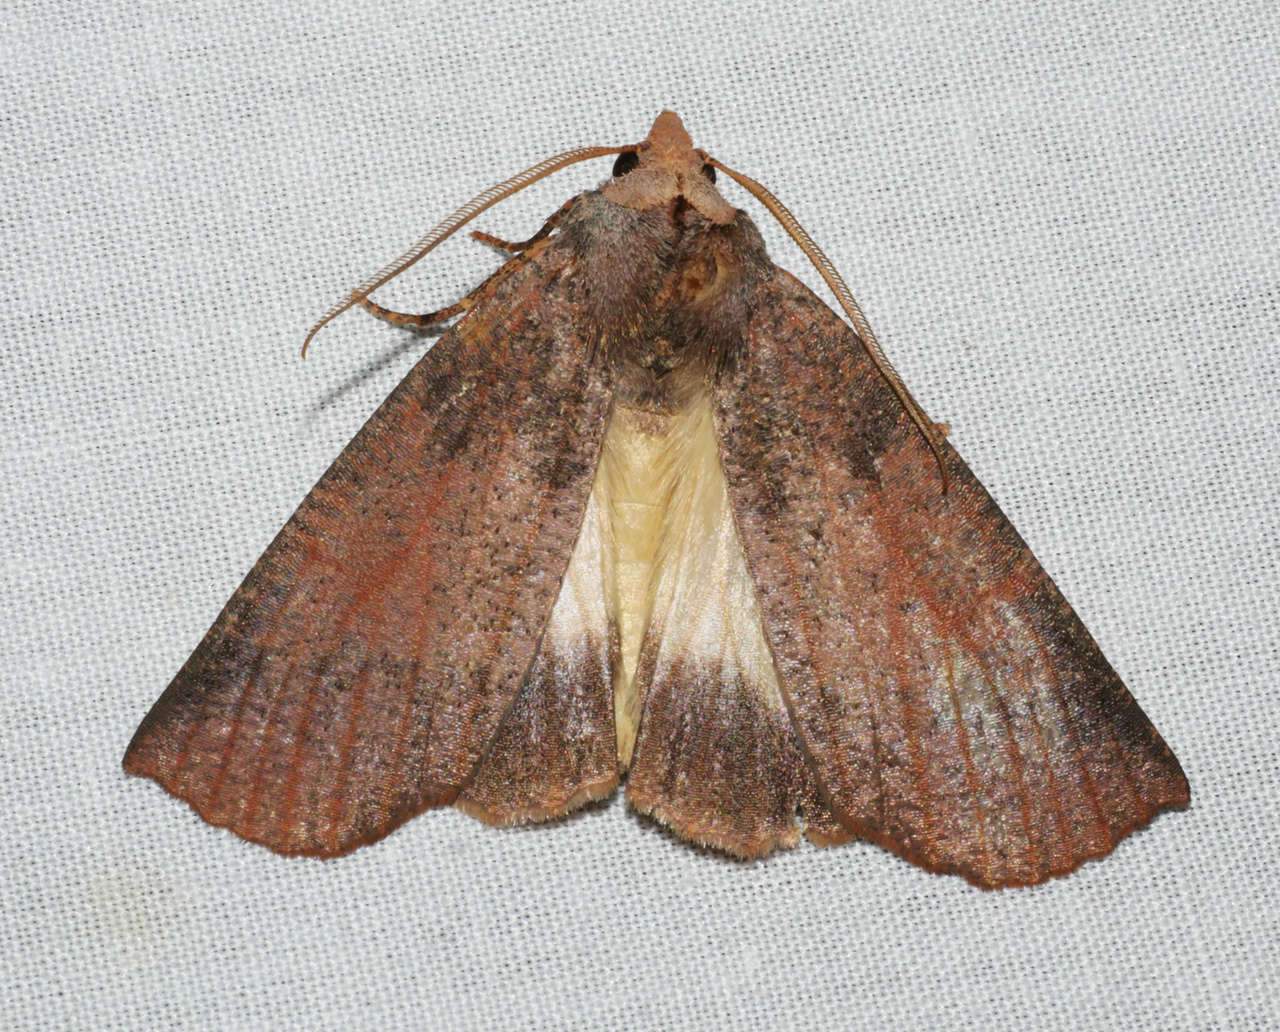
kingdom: Animalia
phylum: Arthropoda
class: Insecta
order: Lepidoptera
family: Geometridae
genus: Fisera
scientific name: Fisera eribola
